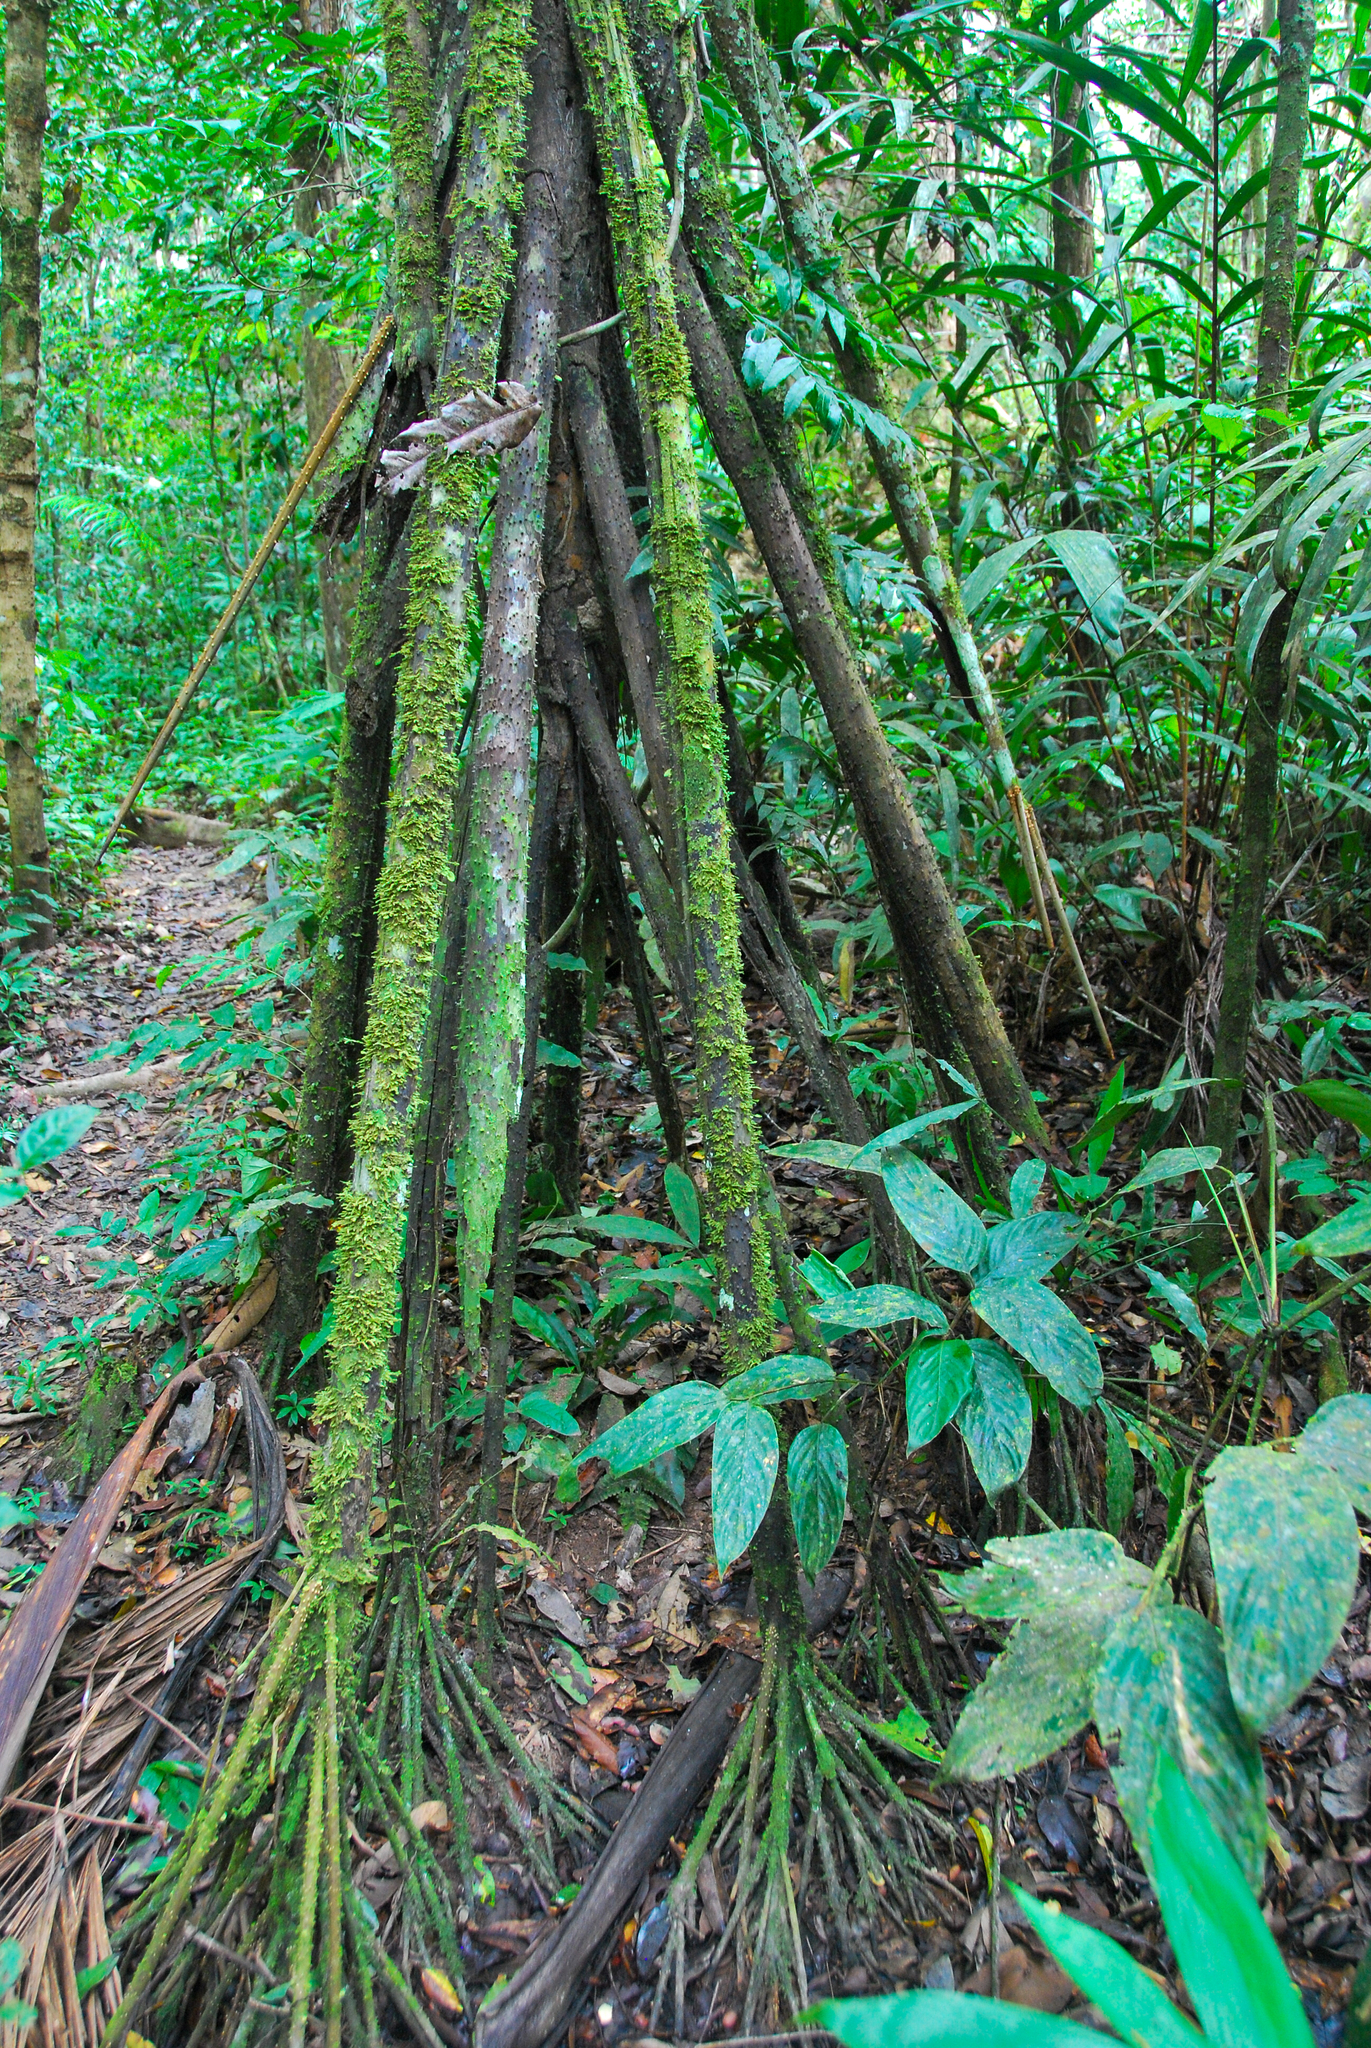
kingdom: Plantae
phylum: Tracheophyta
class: Liliopsida
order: Arecales
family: Arecaceae
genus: Socratea
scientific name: Socratea exorrhiza
